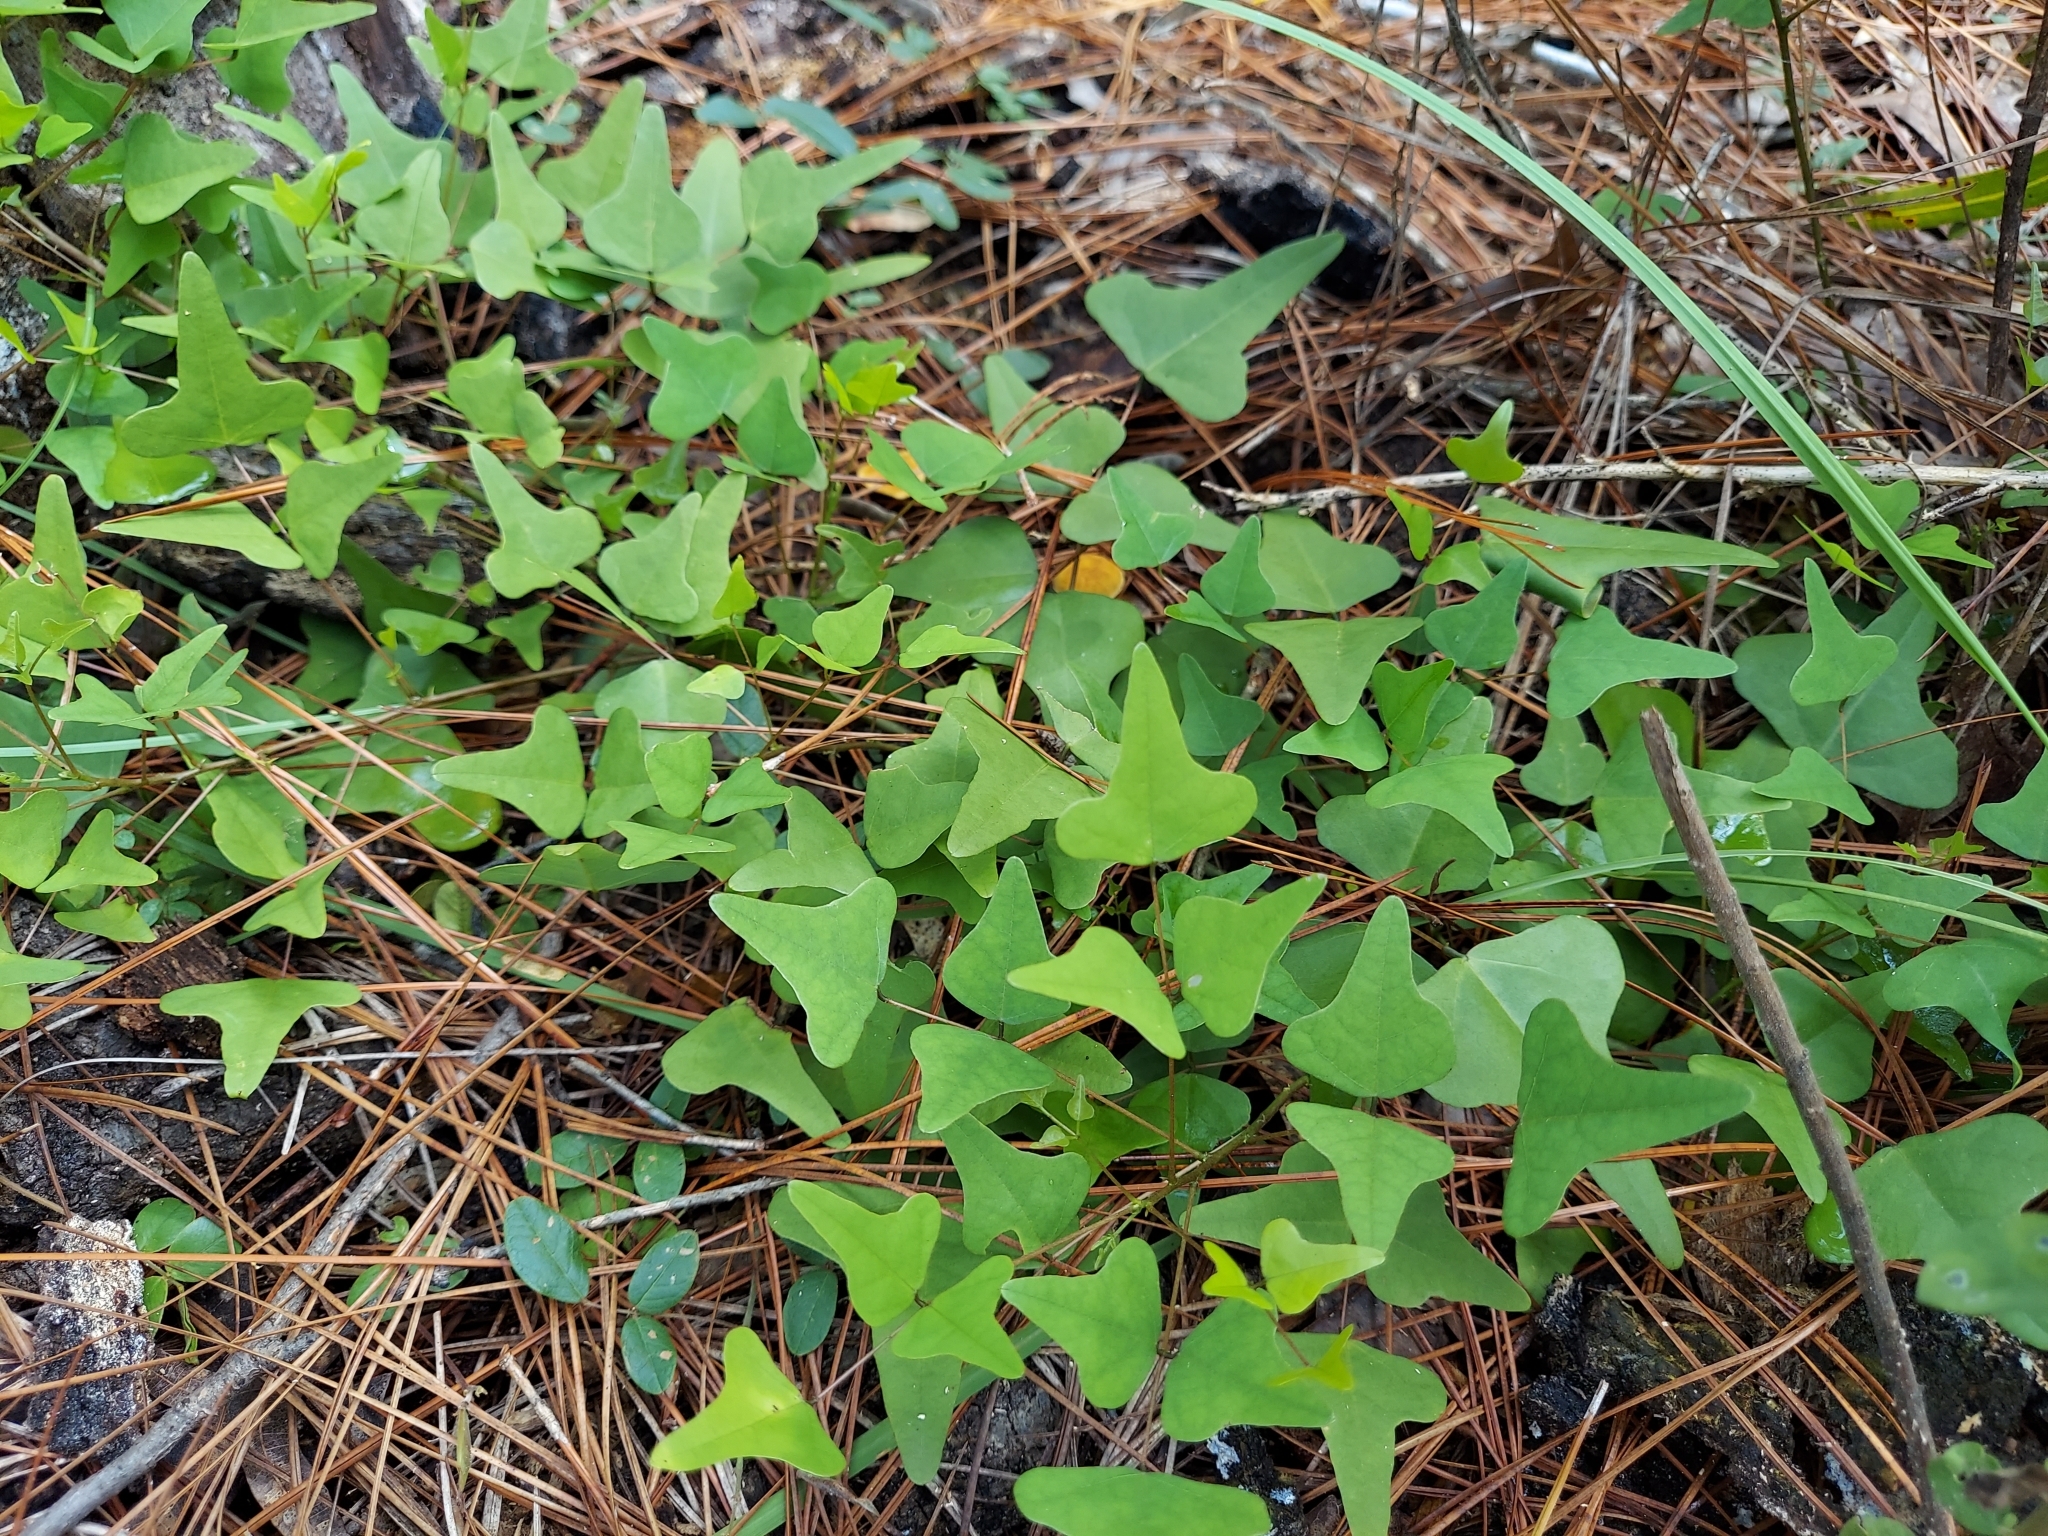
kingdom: Plantae
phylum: Tracheophyta
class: Magnoliopsida
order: Fabales
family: Fabaceae
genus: Erythrina
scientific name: Erythrina herbacea
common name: Coral-bean
